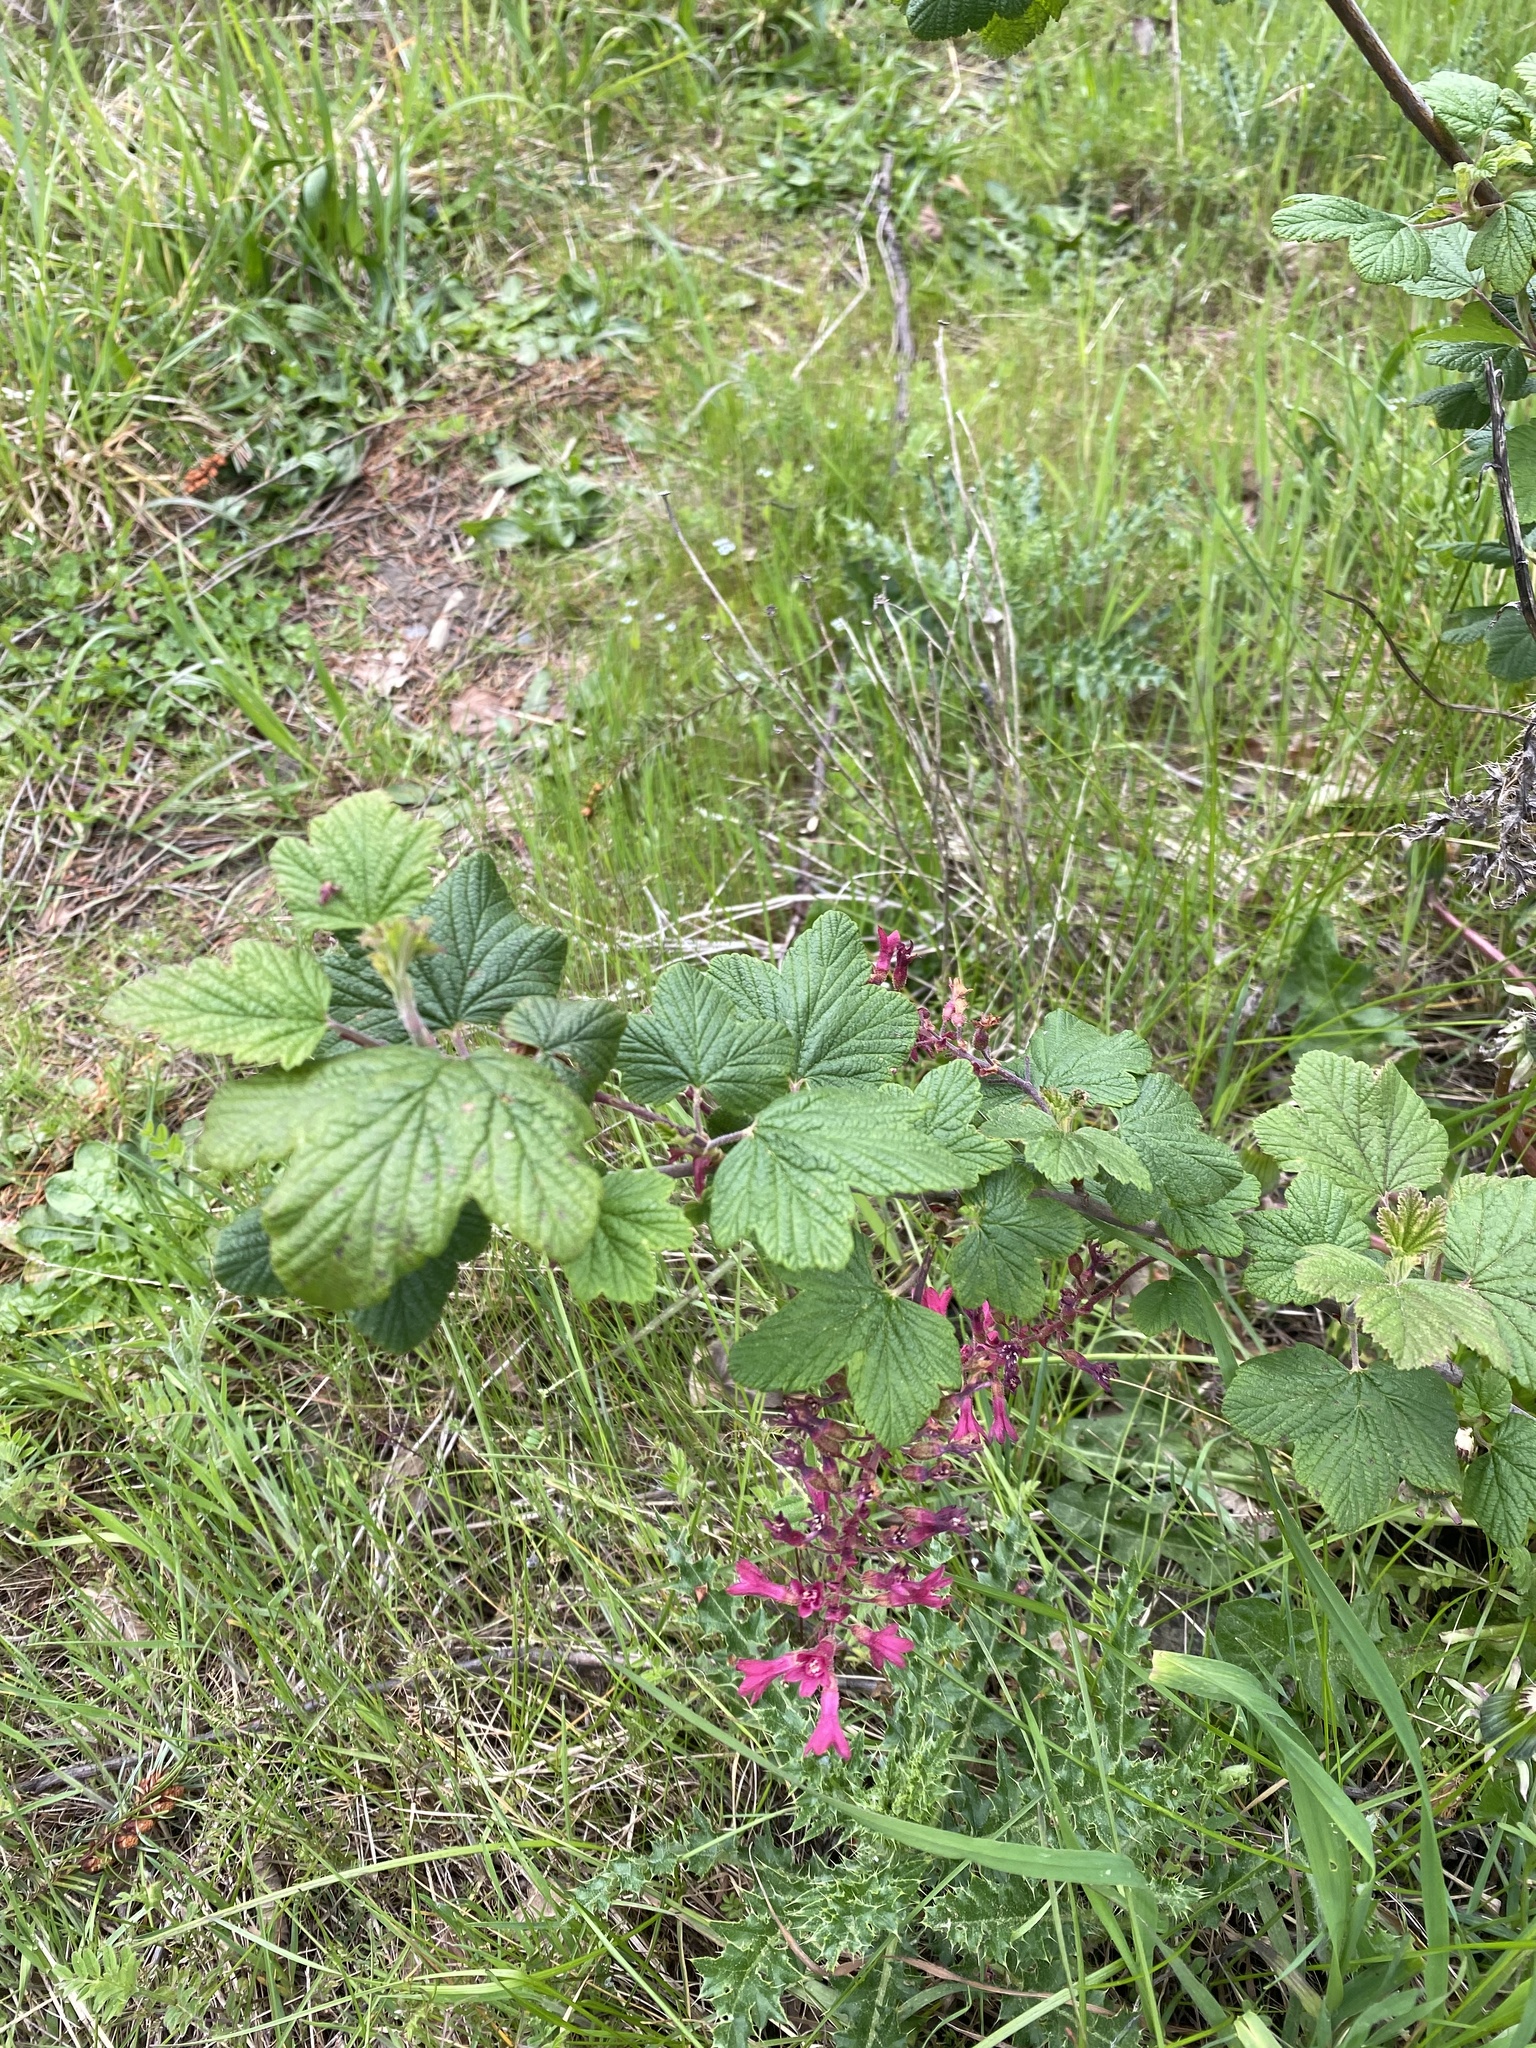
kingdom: Plantae
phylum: Tracheophyta
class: Magnoliopsida
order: Saxifragales
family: Grossulariaceae
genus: Ribes
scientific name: Ribes sanguineum
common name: Flowering currant
